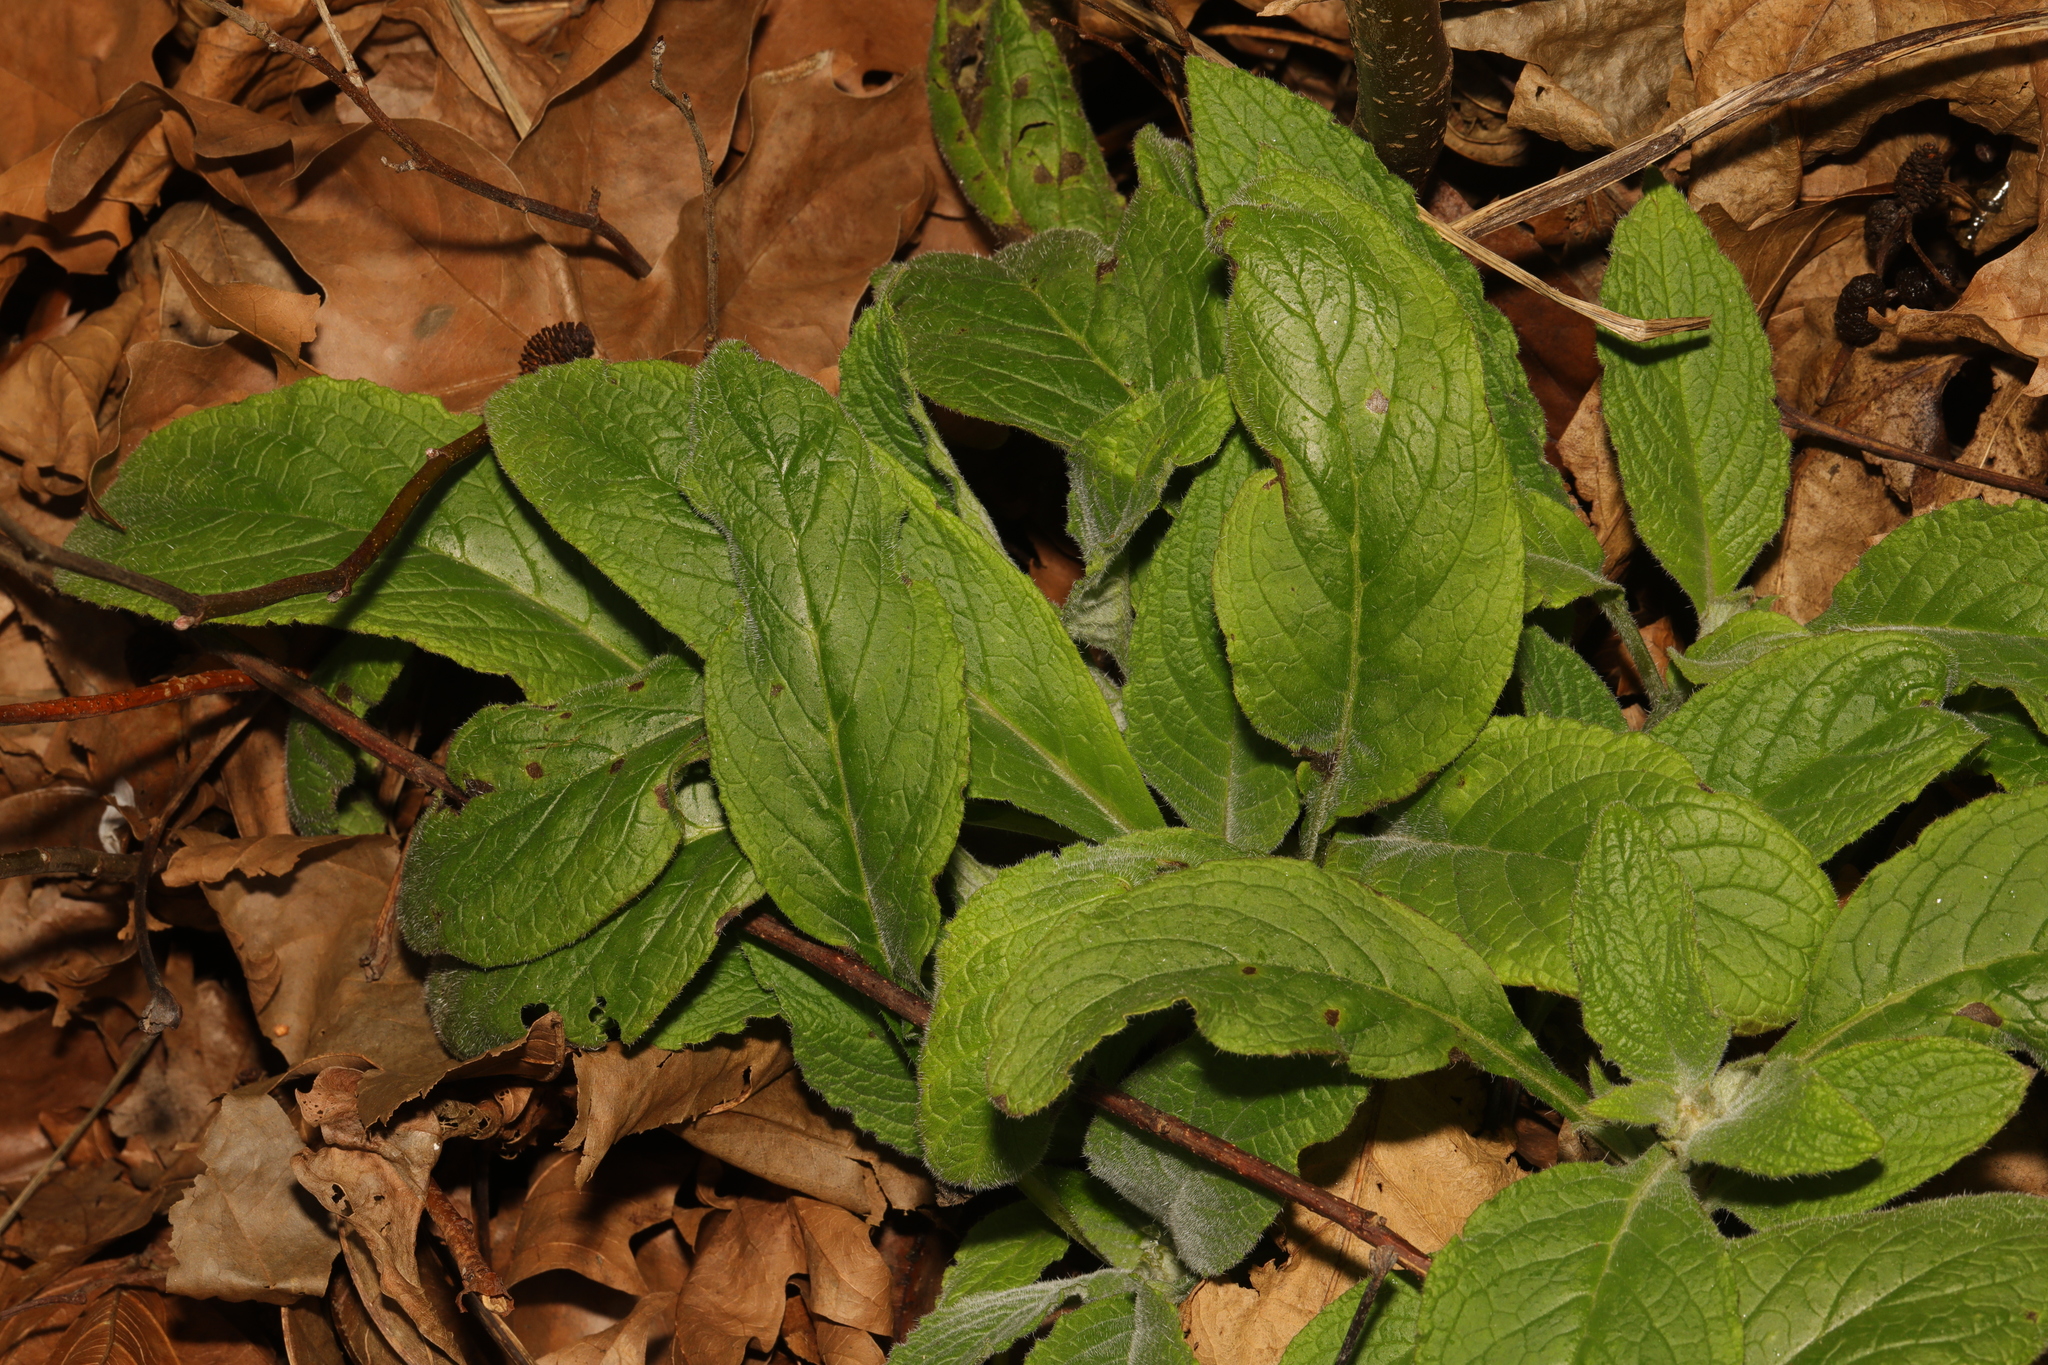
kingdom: Plantae
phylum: Tracheophyta
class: Magnoliopsida
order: Boraginales
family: Boraginaceae
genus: Pentaglottis
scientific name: Pentaglottis sempervirens
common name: Green alkanet
